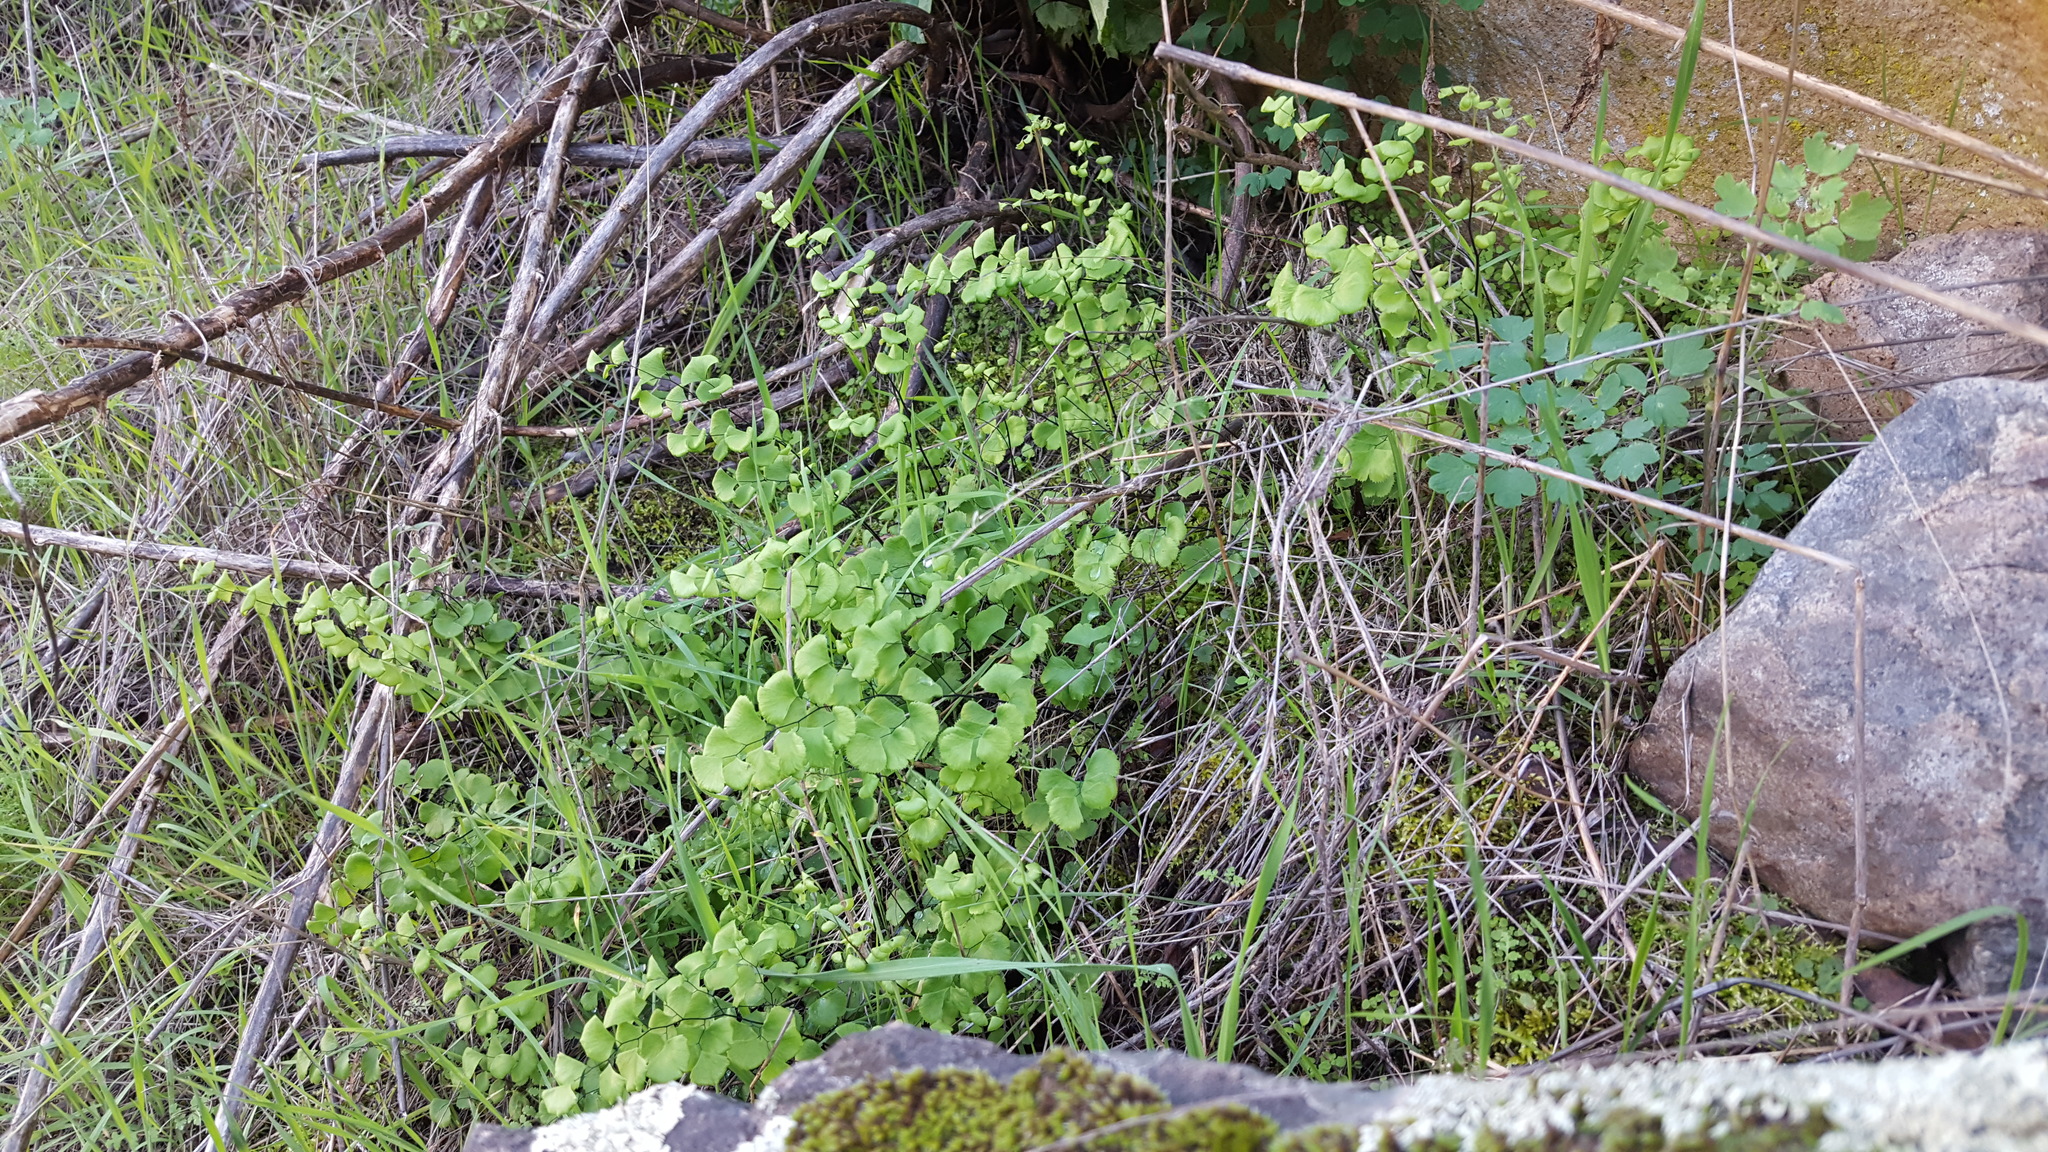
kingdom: Plantae
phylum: Tracheophyta
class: Polypodiopsida
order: Polypodiales
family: Pteridaceae
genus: Adiantum
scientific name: Adiantum jordanii
